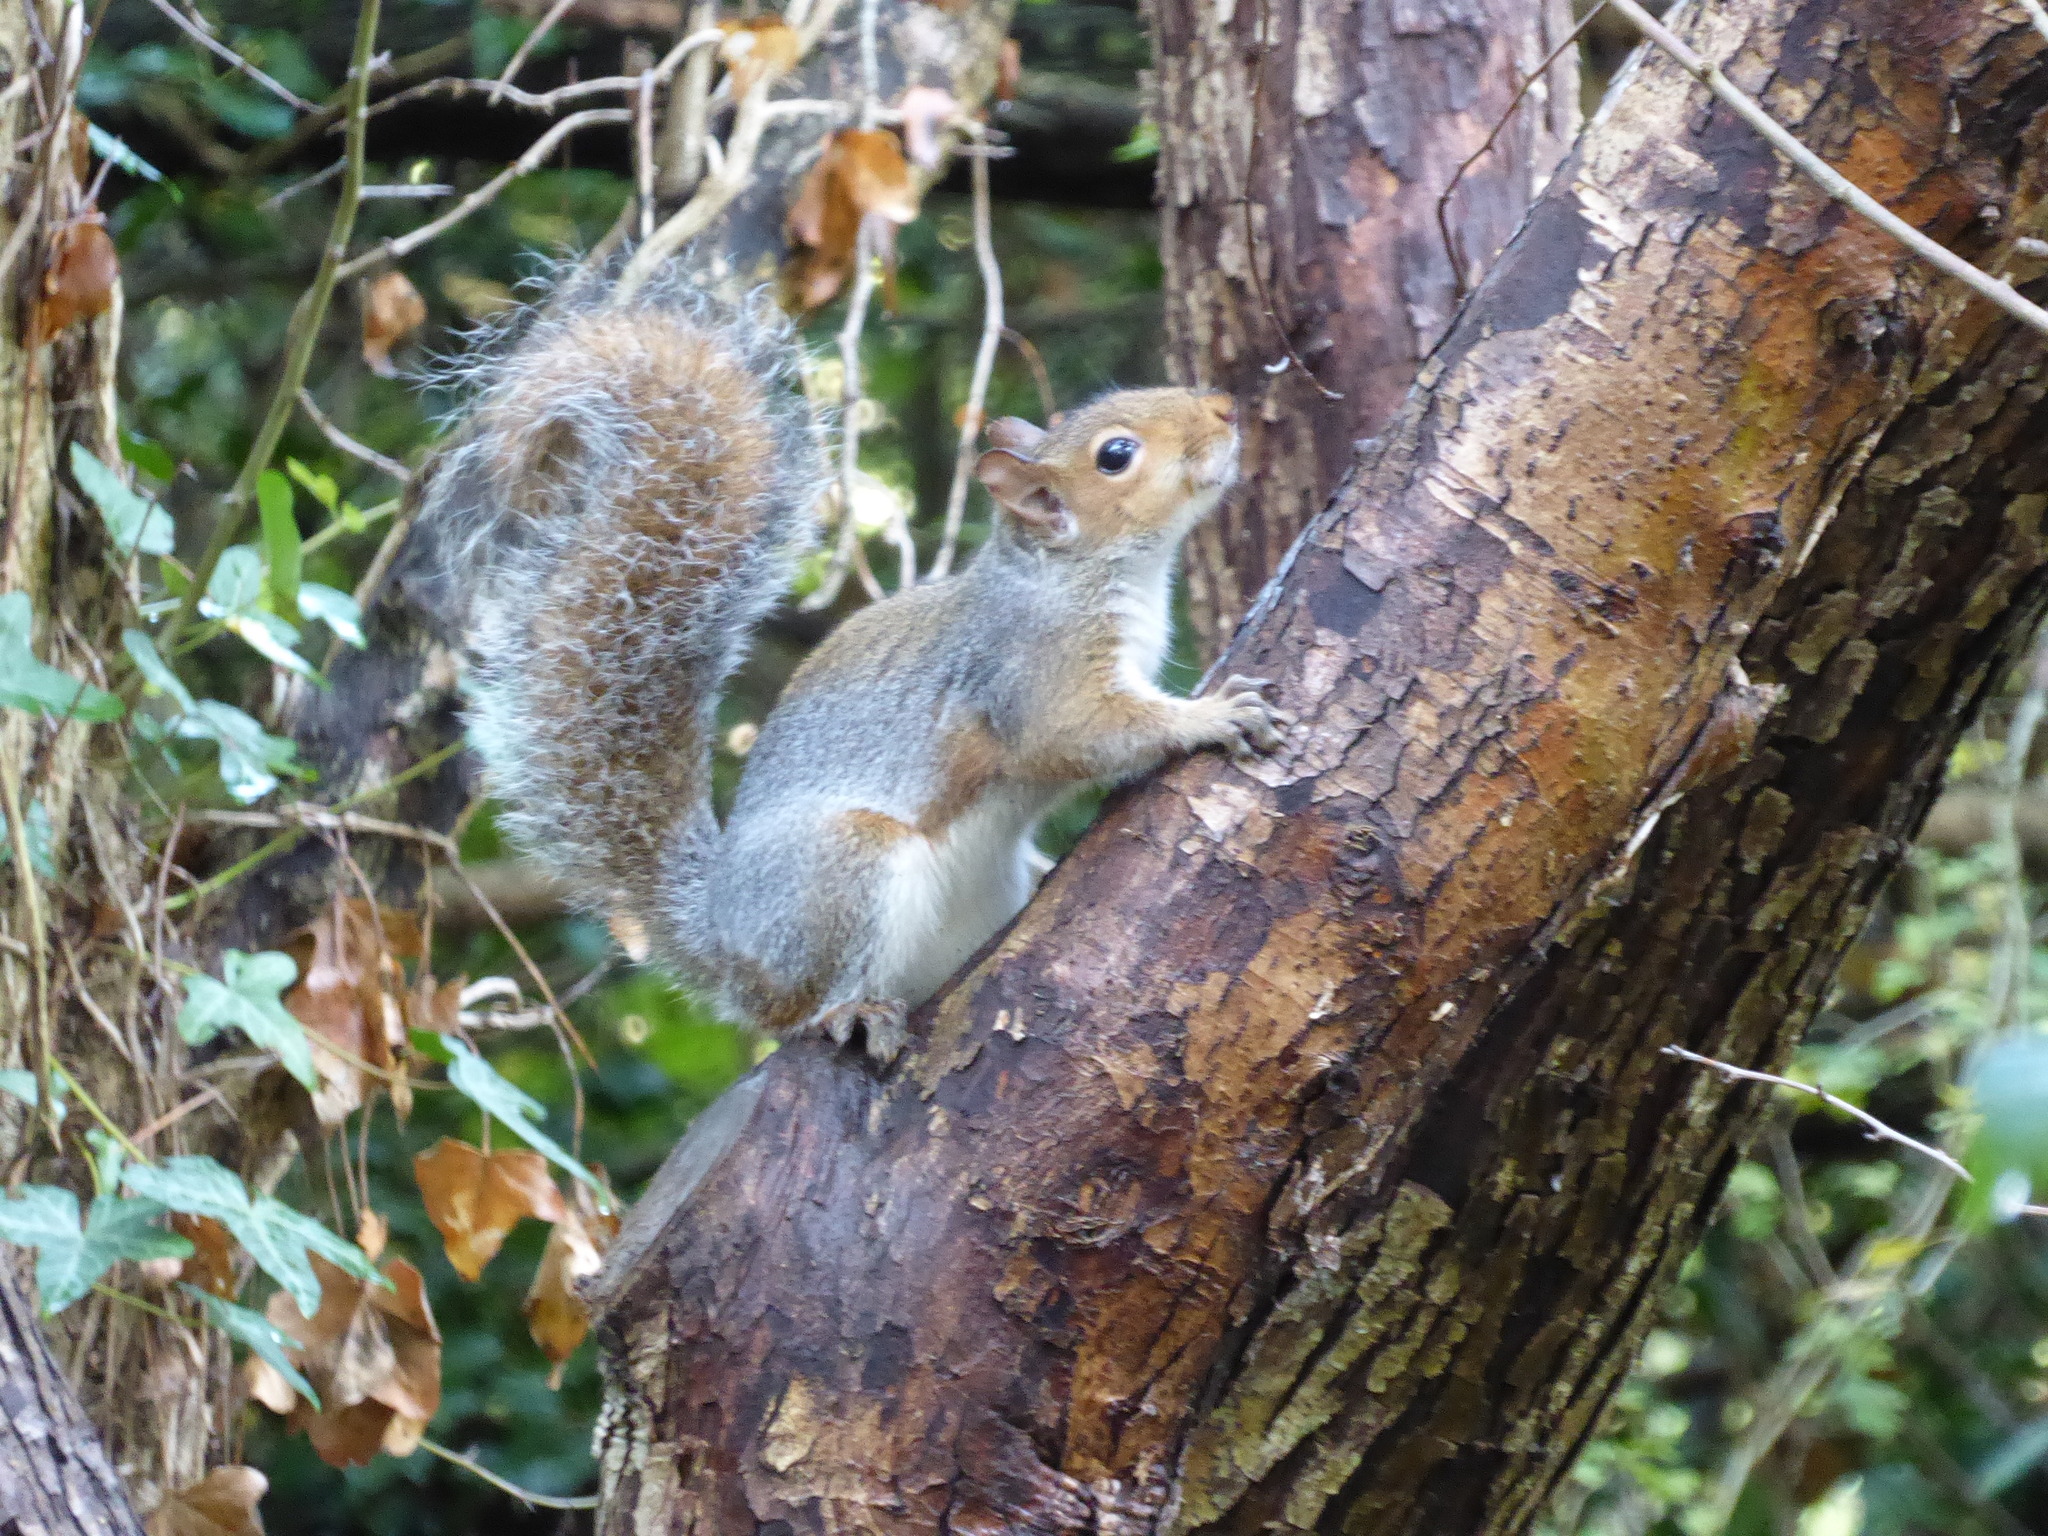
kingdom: Animalia
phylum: Chordata
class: Mammalia
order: Rodentia
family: Sciuridae
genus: Sciurus
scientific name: Sciurus carolinensis
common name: Eastern gray squirrel
